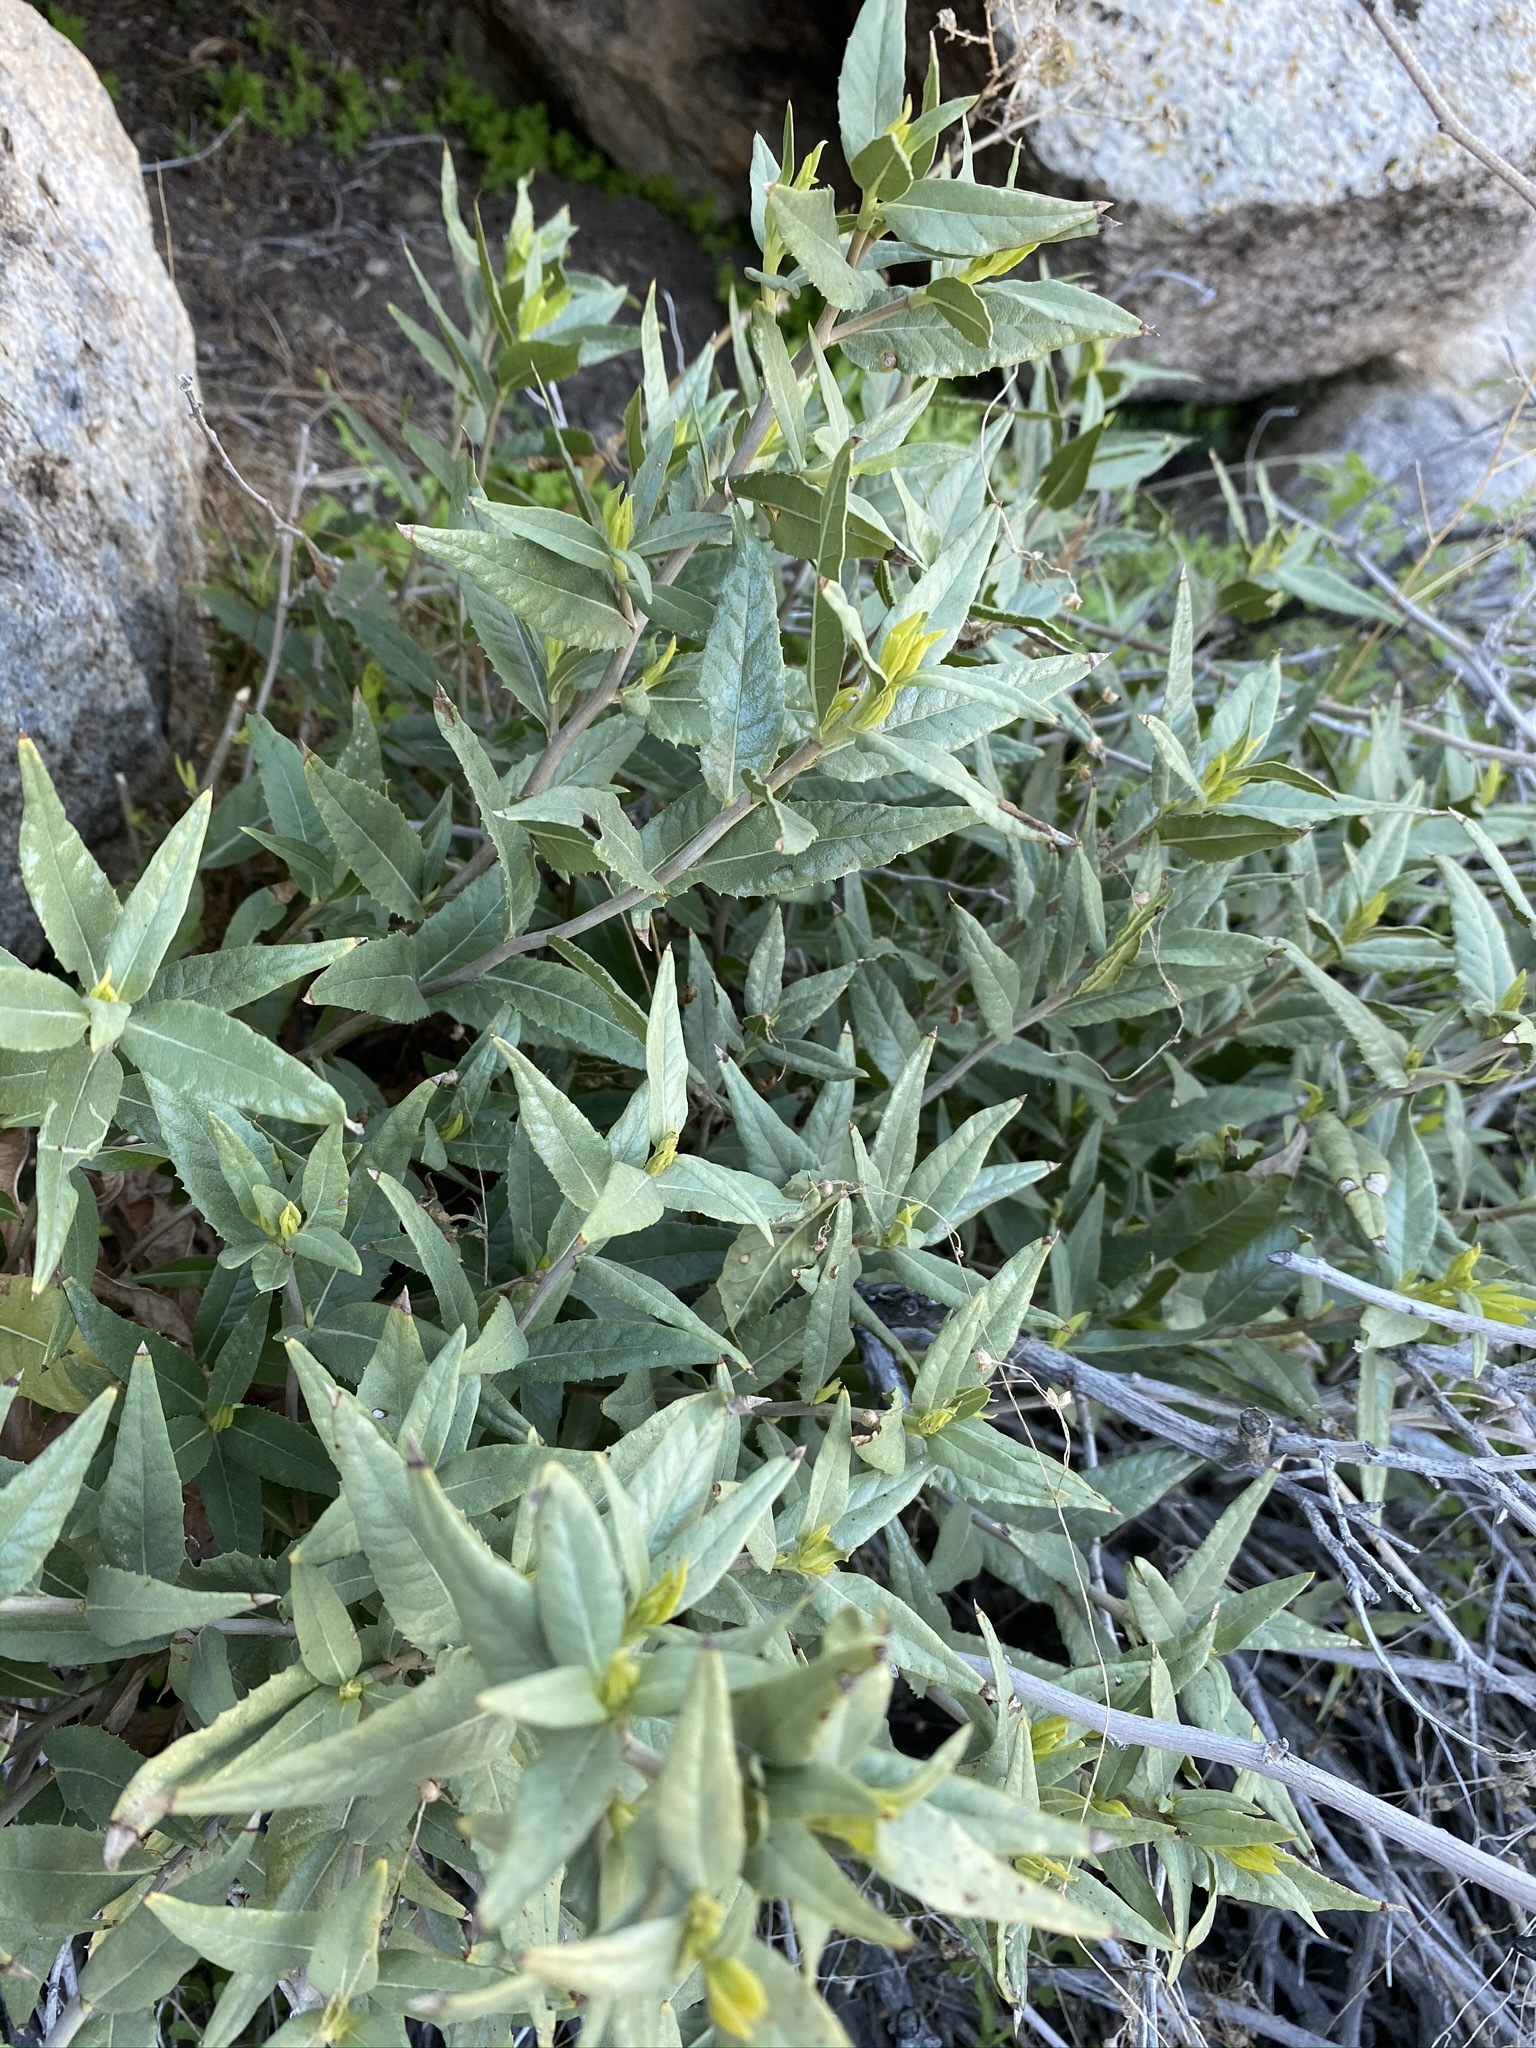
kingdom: Plantae
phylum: Tracheophyta
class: Magnoliopsida
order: Asterales
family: Asteraceae
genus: Trixis
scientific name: Trixis californica
